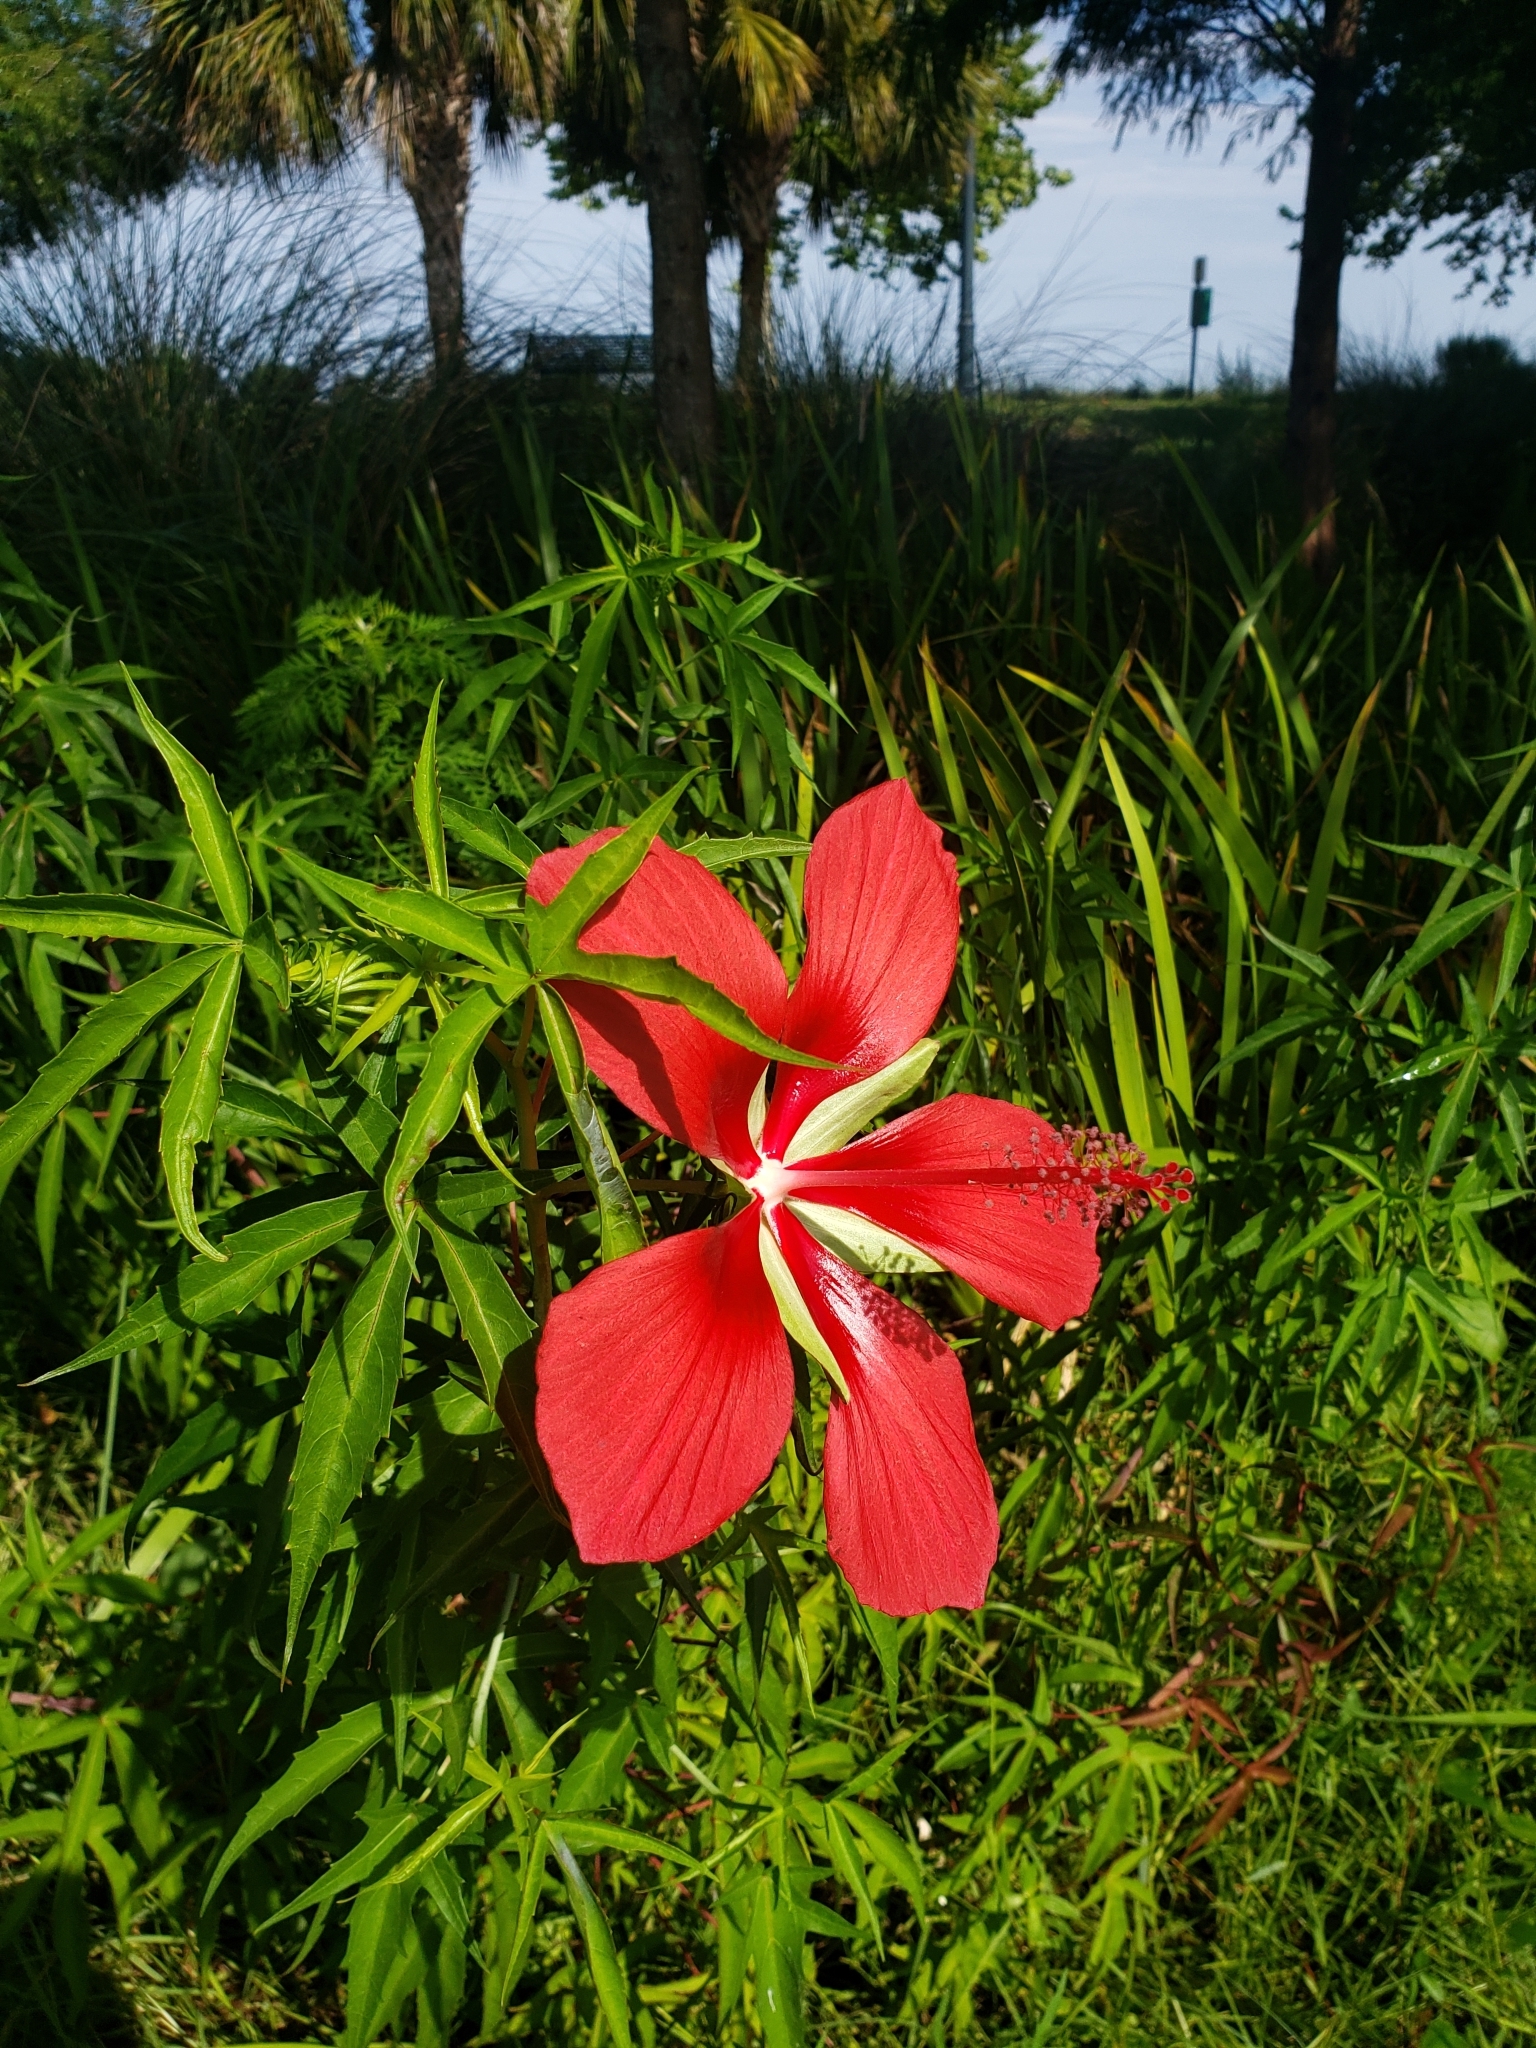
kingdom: Plantae
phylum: Tracheophyta
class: Magnoliopsida
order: Malvales
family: Malvaceae
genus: Hibiscus
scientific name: Hibiscus coccineus
